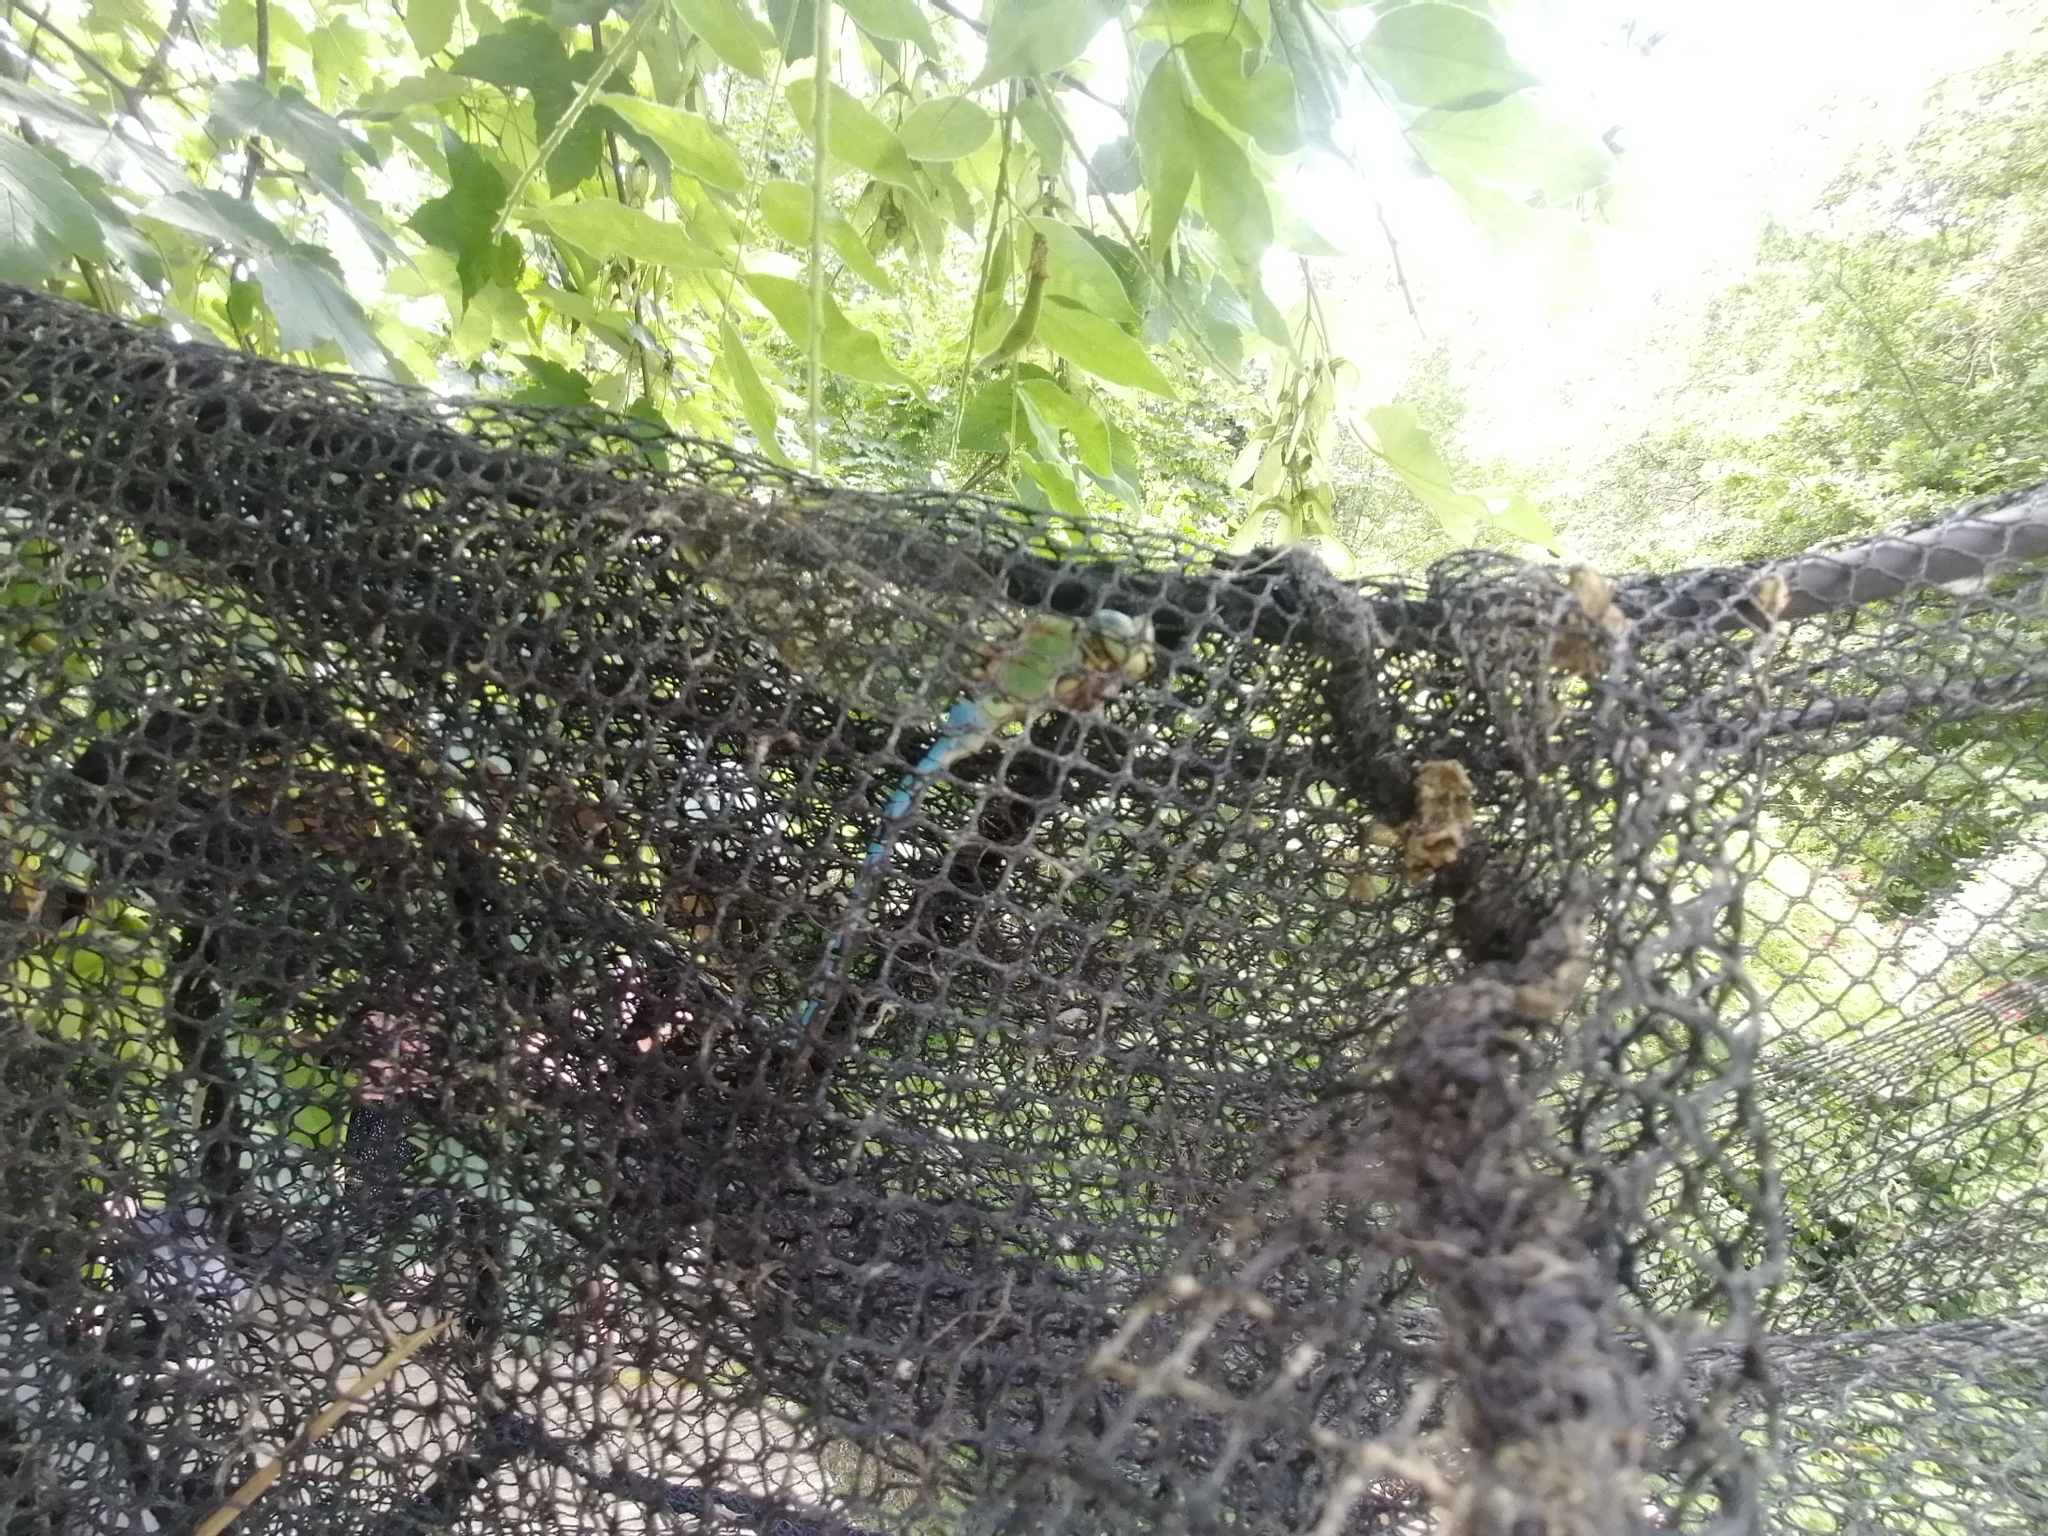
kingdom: Animalia
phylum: Arthropoda
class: Insecta
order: Odonata
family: Aeshnidae
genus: Anax
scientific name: Anax imperator
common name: Emperor dragonfly
